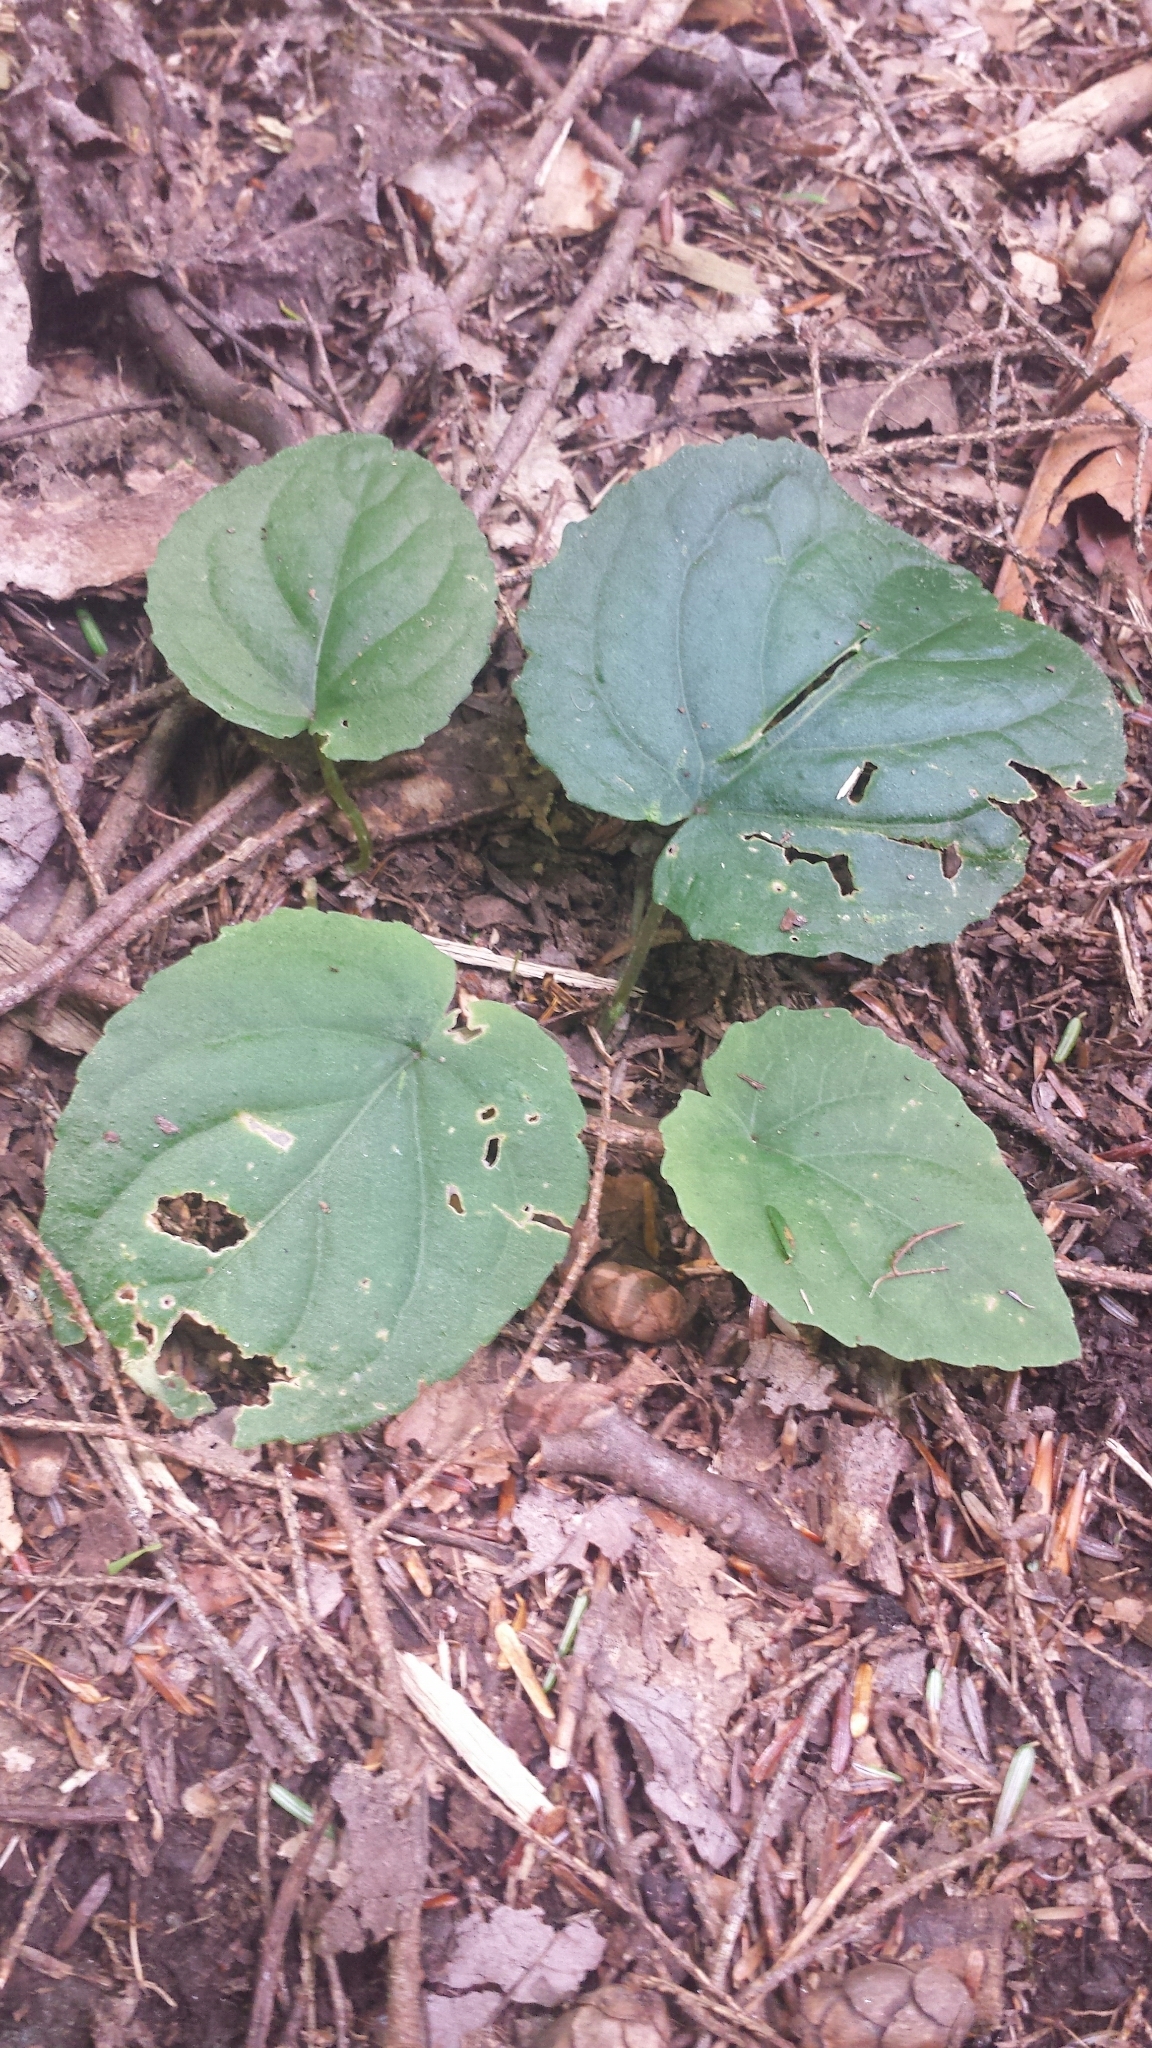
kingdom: Plantae
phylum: Tracheophyta
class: Magnoliopsida
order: Malpighiales
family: Violaceae
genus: Viola
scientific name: Viola rotundifolia
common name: Early yellow violet
